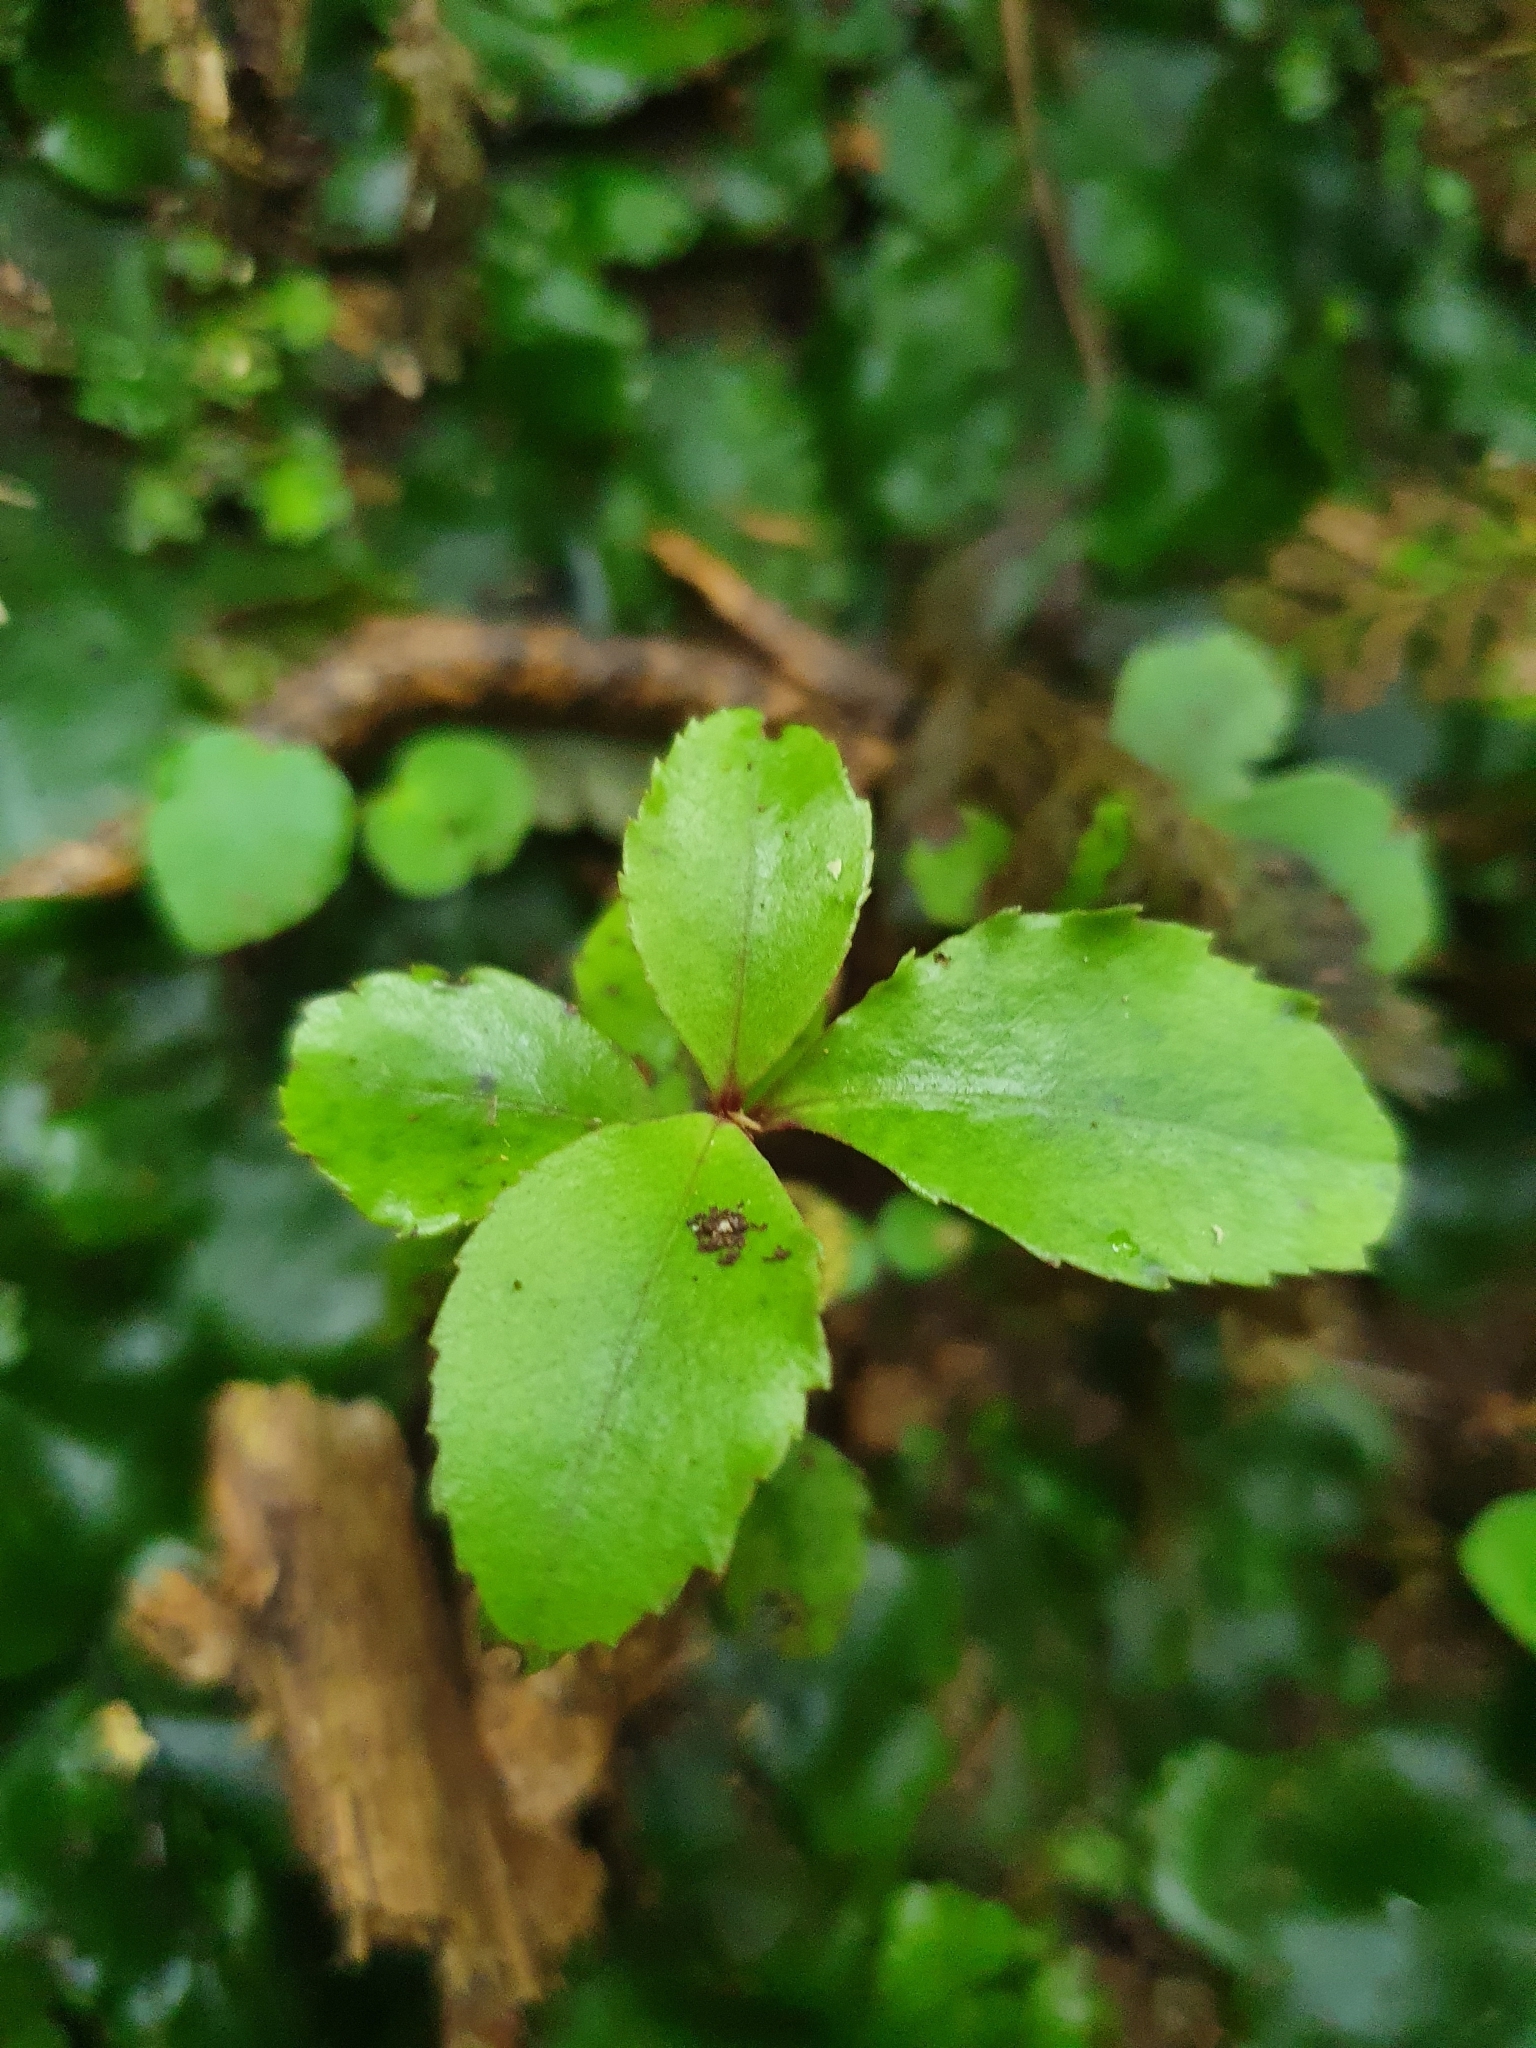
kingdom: Plantae
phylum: Tracheophyta
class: Magnoliopsida
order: Ericales
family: Primulaceae
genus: Myrsine
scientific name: Myrsine australis
